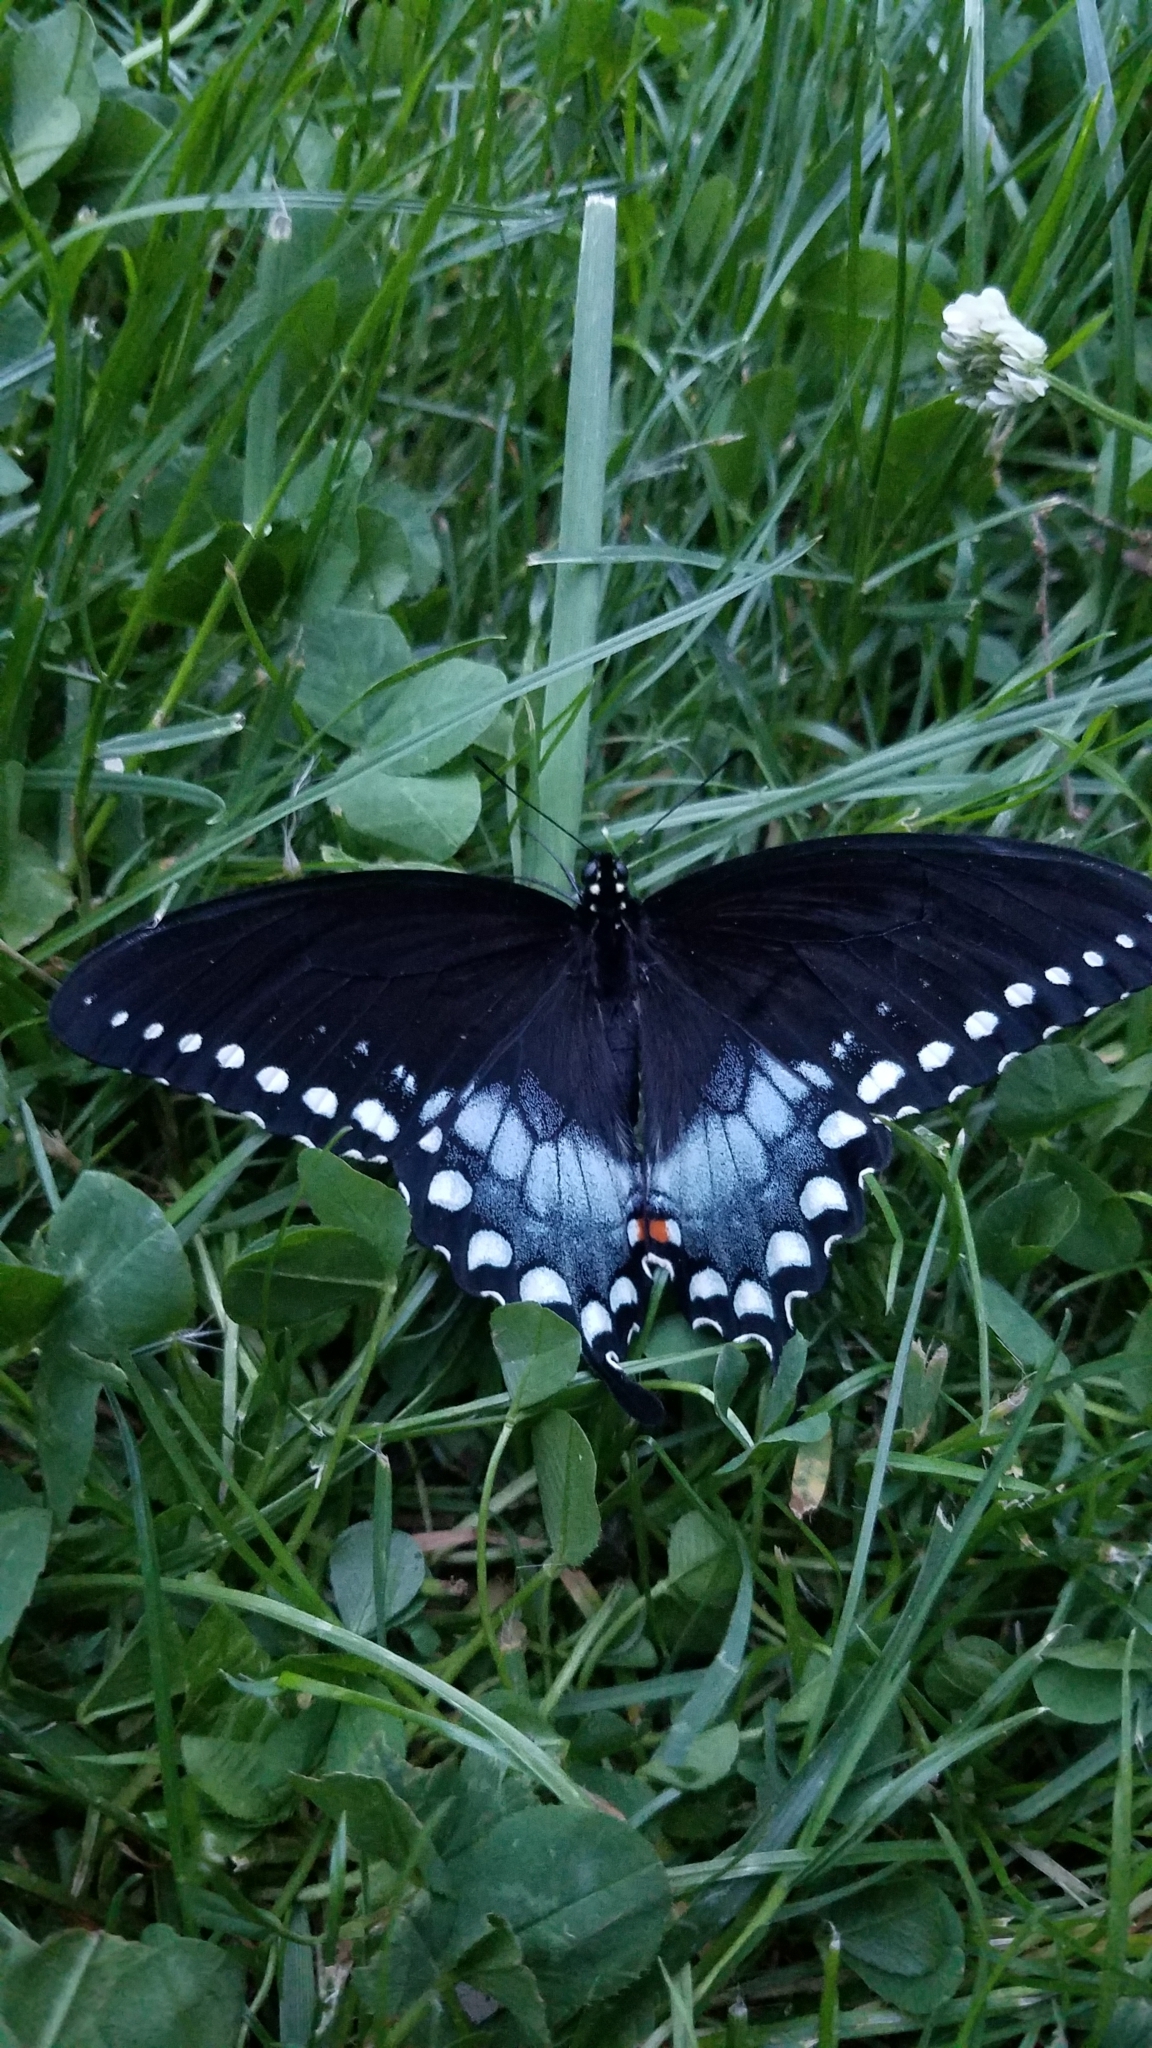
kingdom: Animalia
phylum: Arthropoda
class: Insecta
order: Lepidoptera
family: Papilionidae
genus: Papilio
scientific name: Papilio troilus
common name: Spicebush swallowtail
